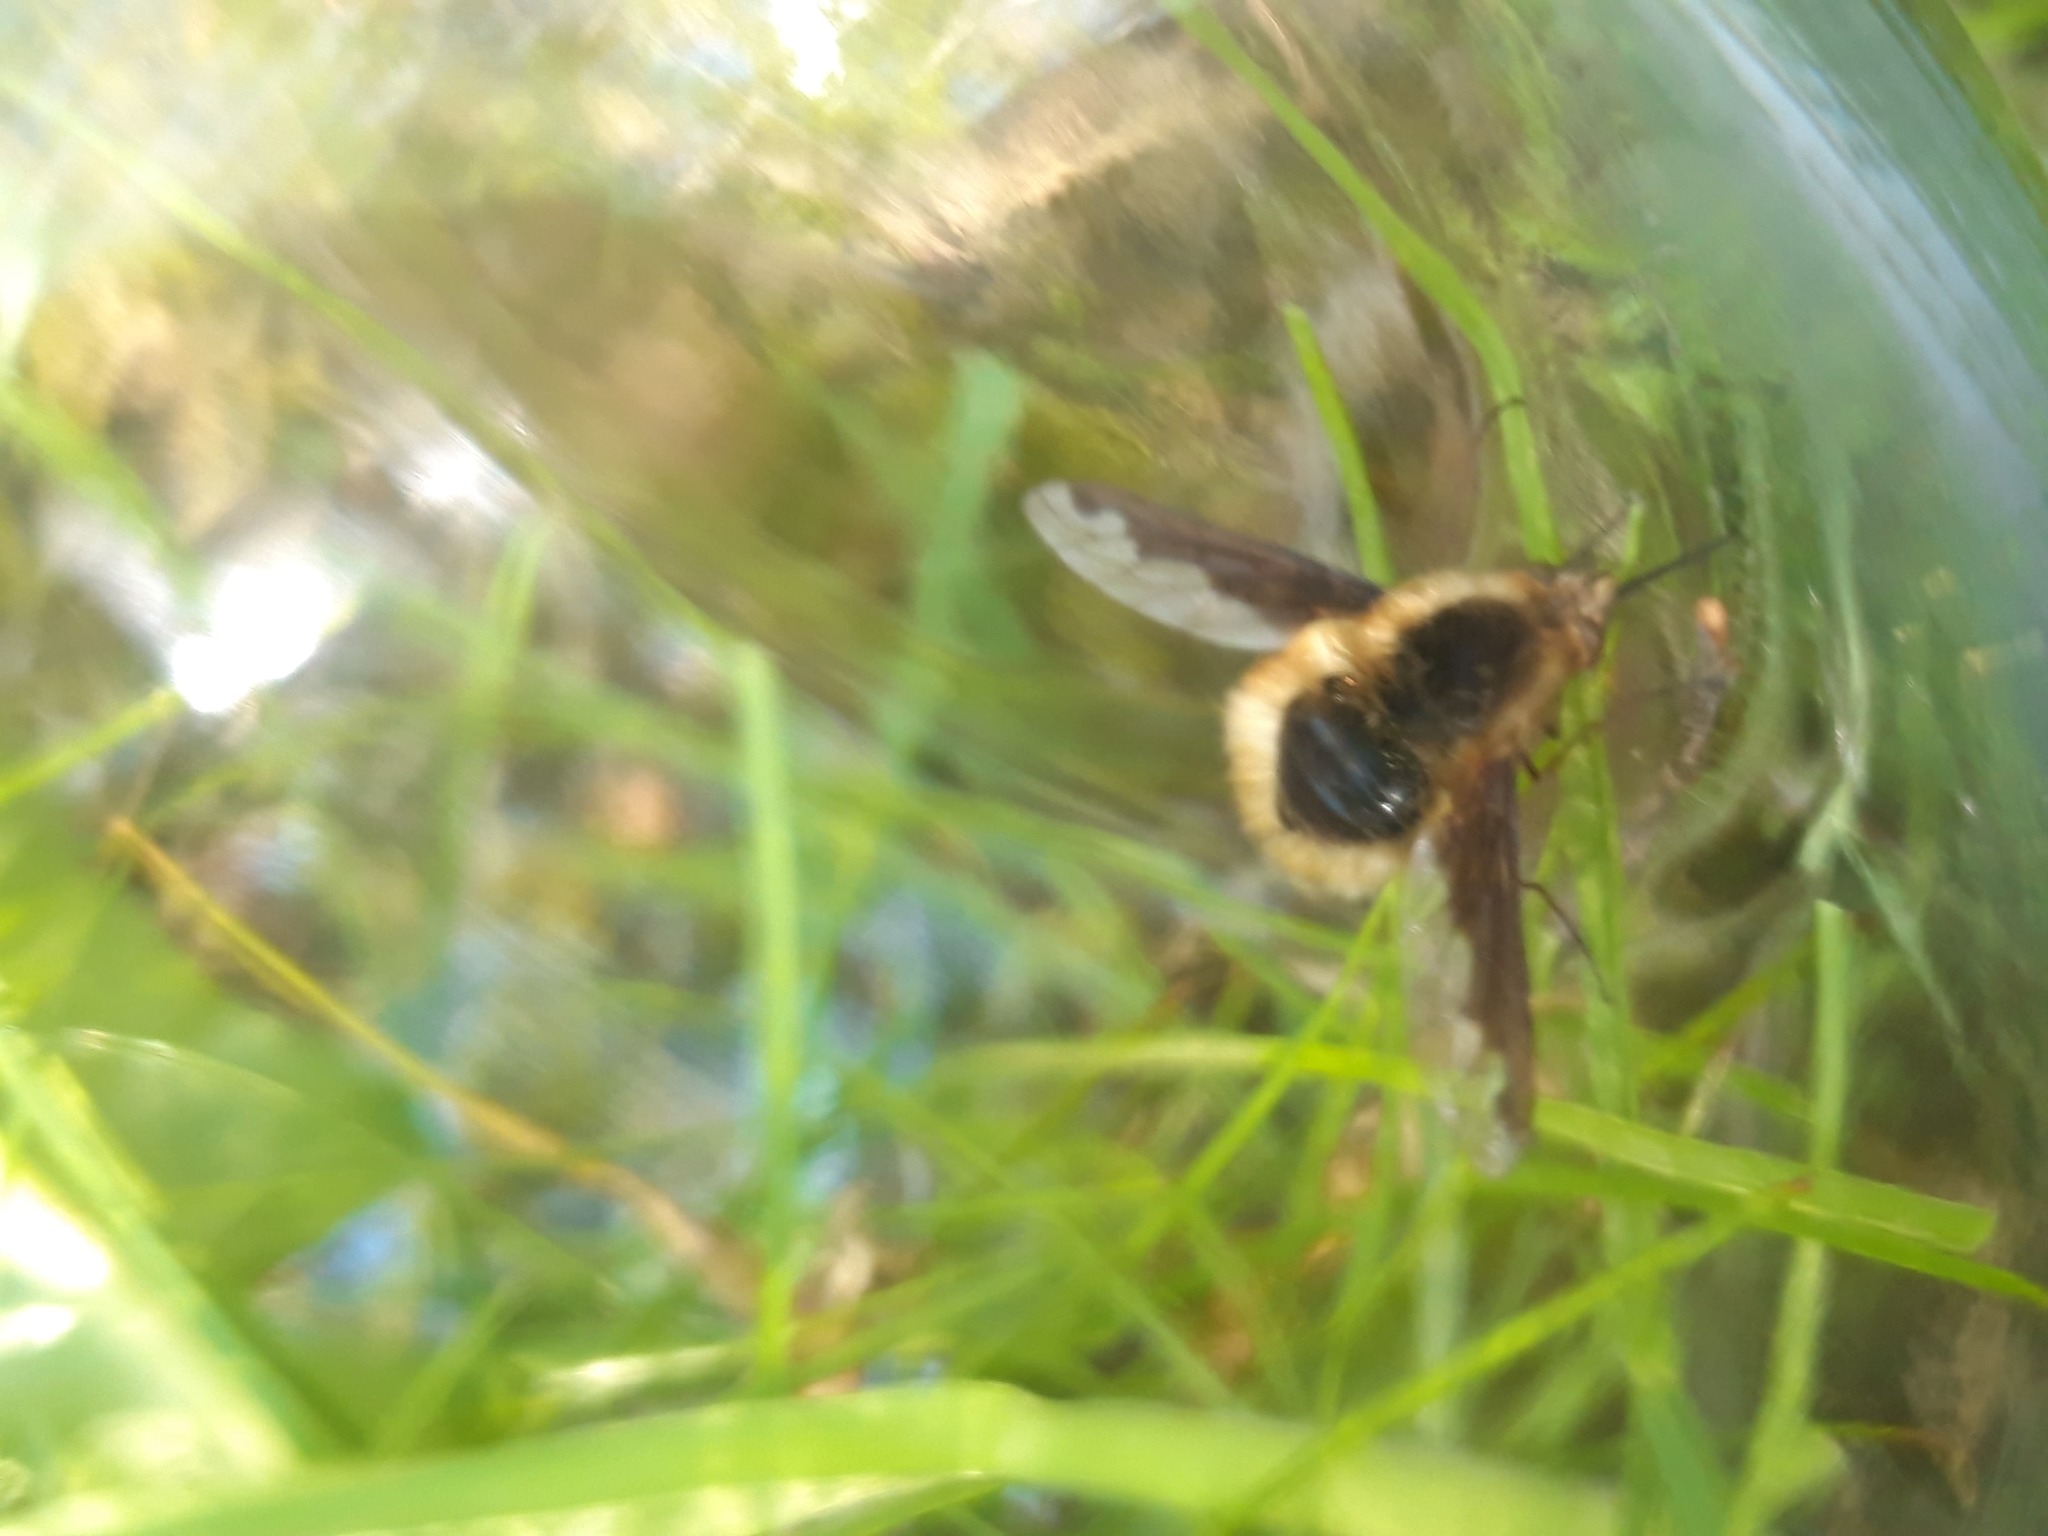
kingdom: Animalia
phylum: Arthropoda
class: Insecta
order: Diptera
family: Bombyliidae
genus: Bombylius
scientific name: Bombylius major
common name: Bee fly
